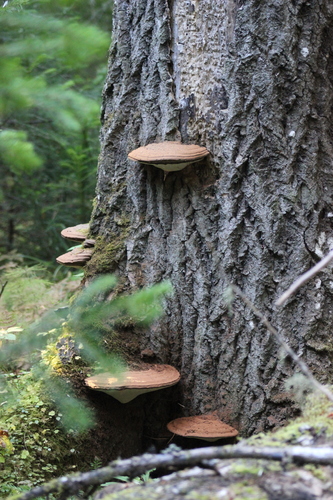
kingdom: Fungi
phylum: Basidiomycota
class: Agaricomycetes
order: Polyporales
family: Polyporaceae
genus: Ganoderma
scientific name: Ganoderma applanatum
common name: Artist's bracket
